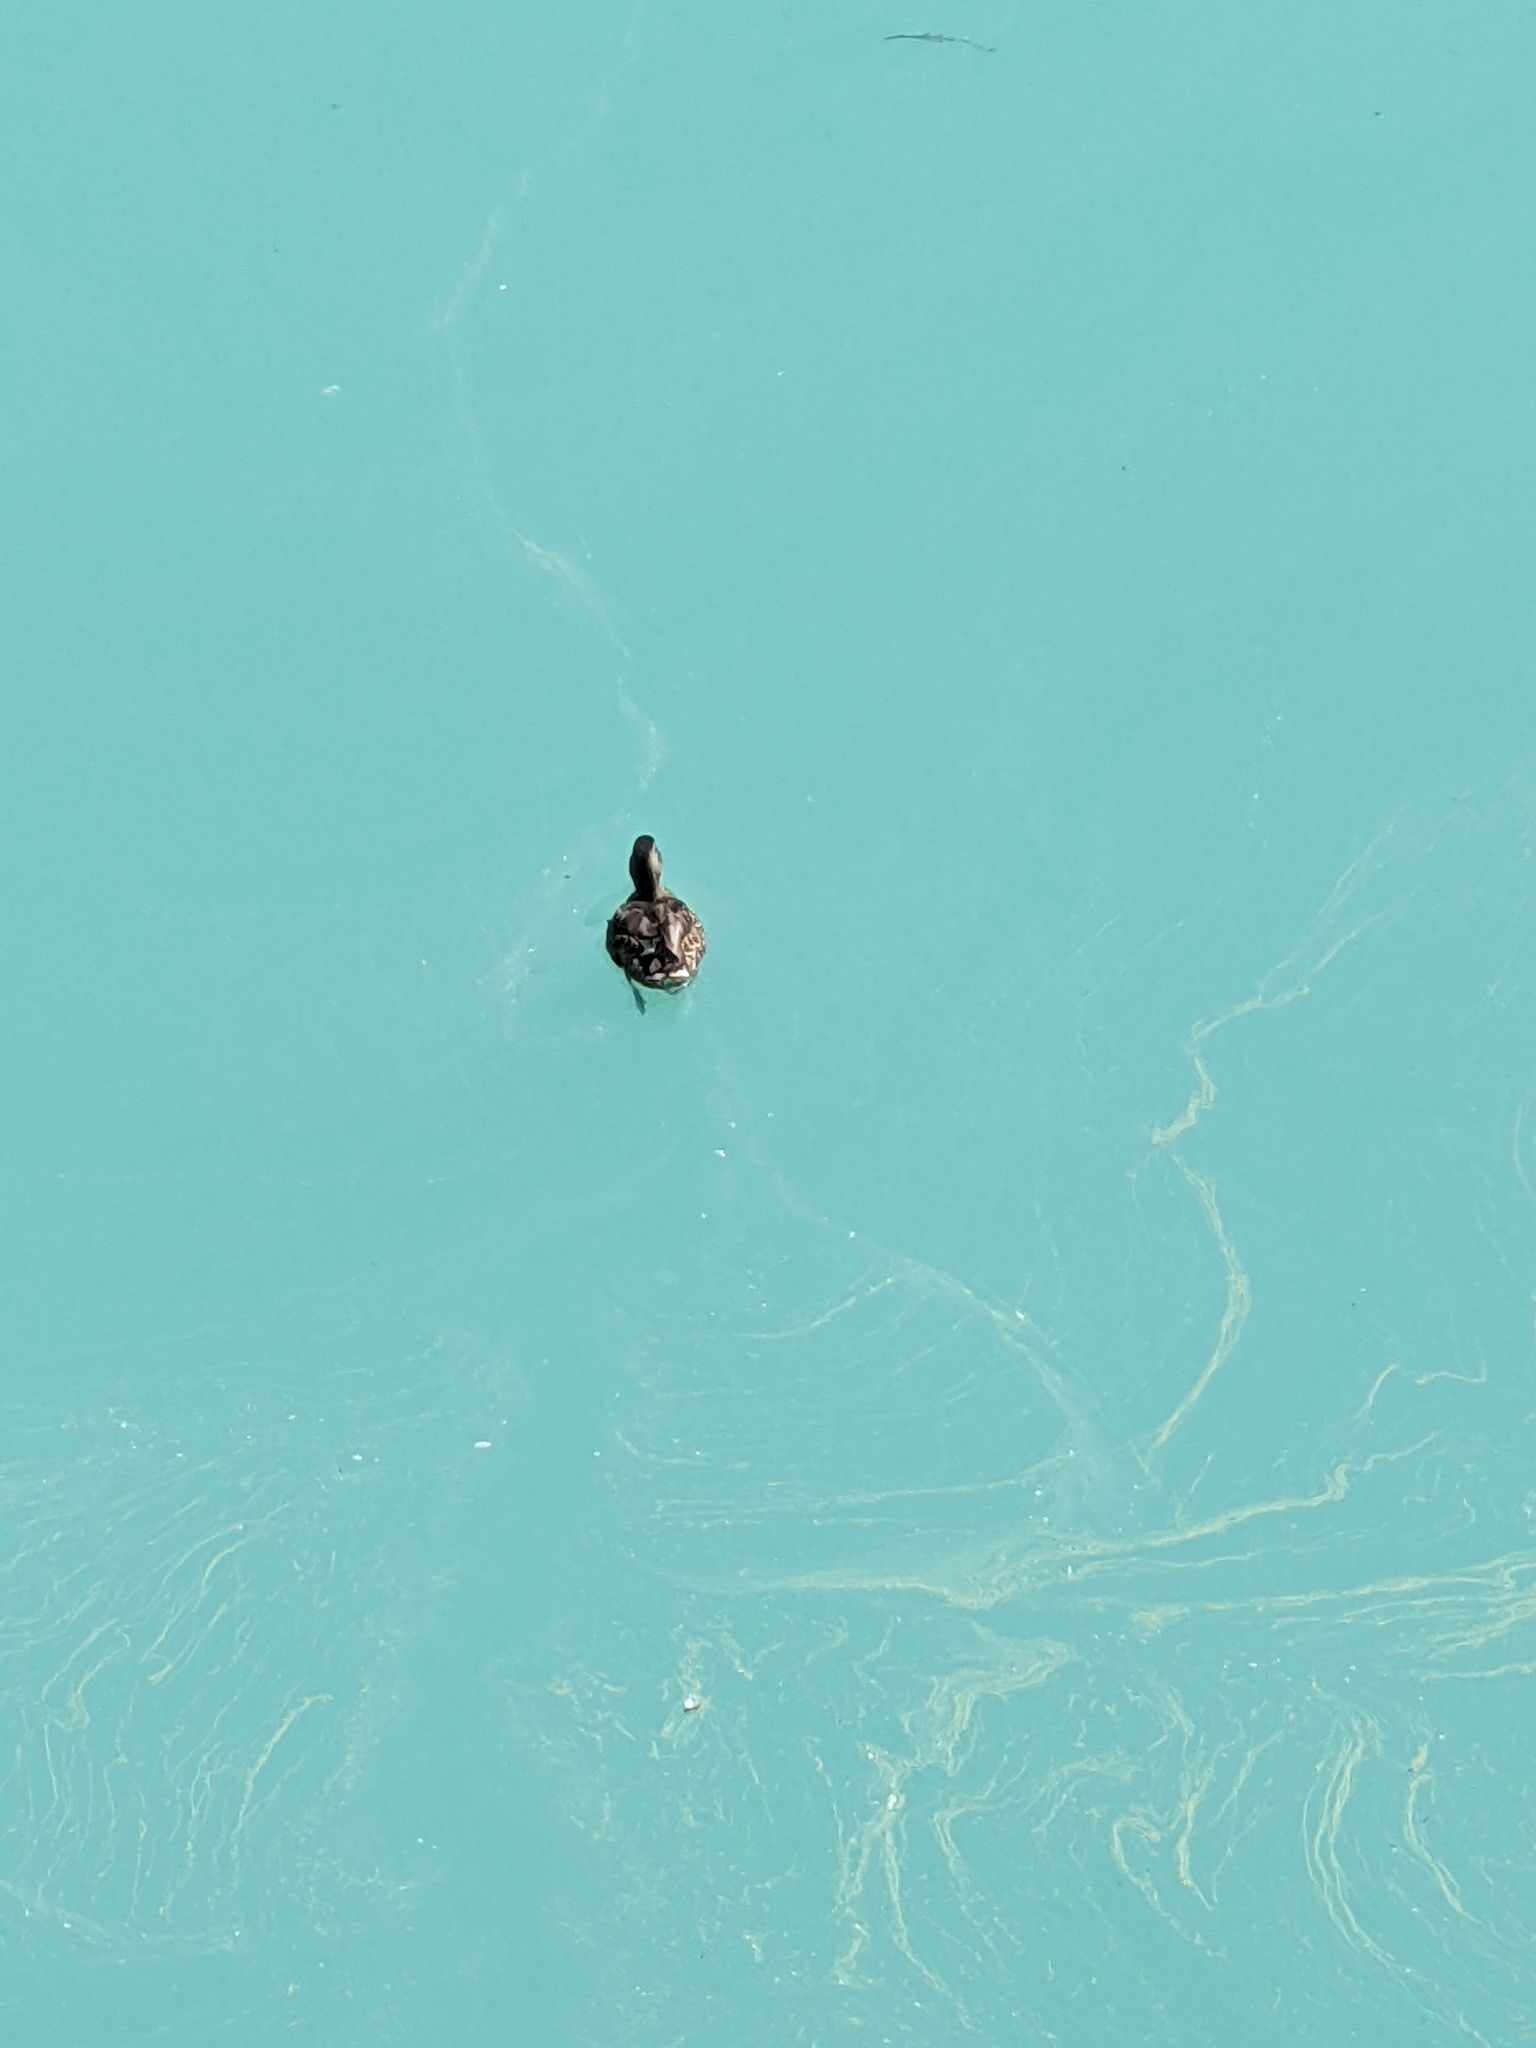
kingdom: Animalia
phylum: Chordata
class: Aves
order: Anseriformes
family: Anatidae
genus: Anas
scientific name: Anas platyrhynchos
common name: Mallard
